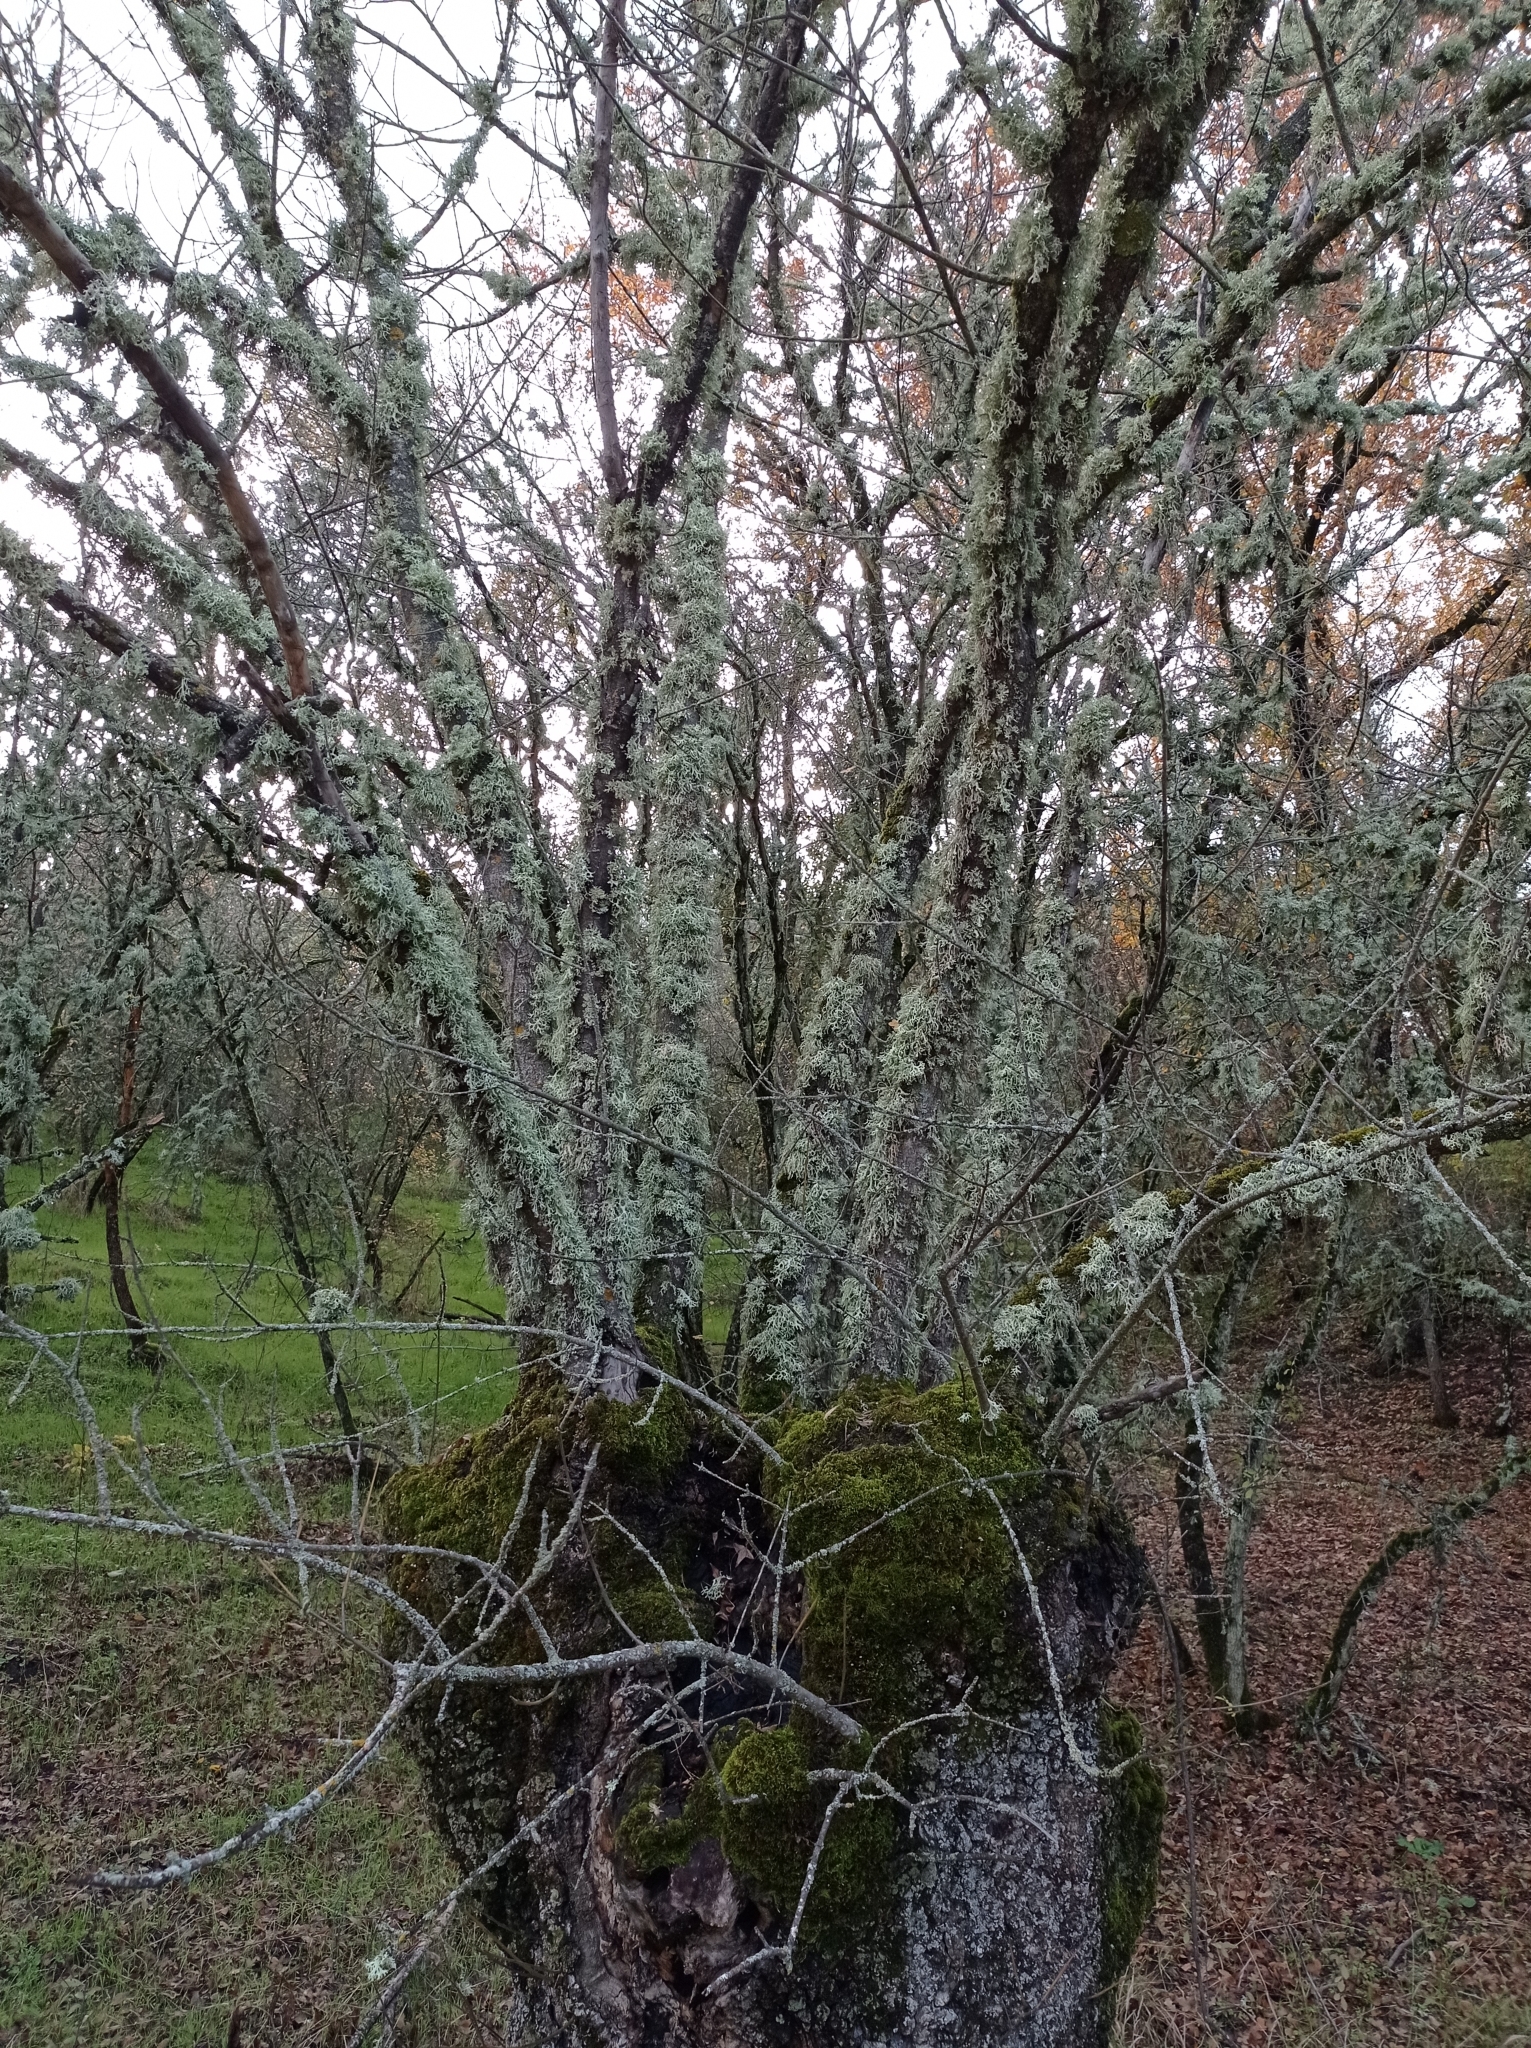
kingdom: Plantae
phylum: Tracheophyta
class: Magnoliopsida
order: Lamiales
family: Oleaceae
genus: Fraxinus
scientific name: Fraxinus angustifolia
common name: Narrow-leafed ash
